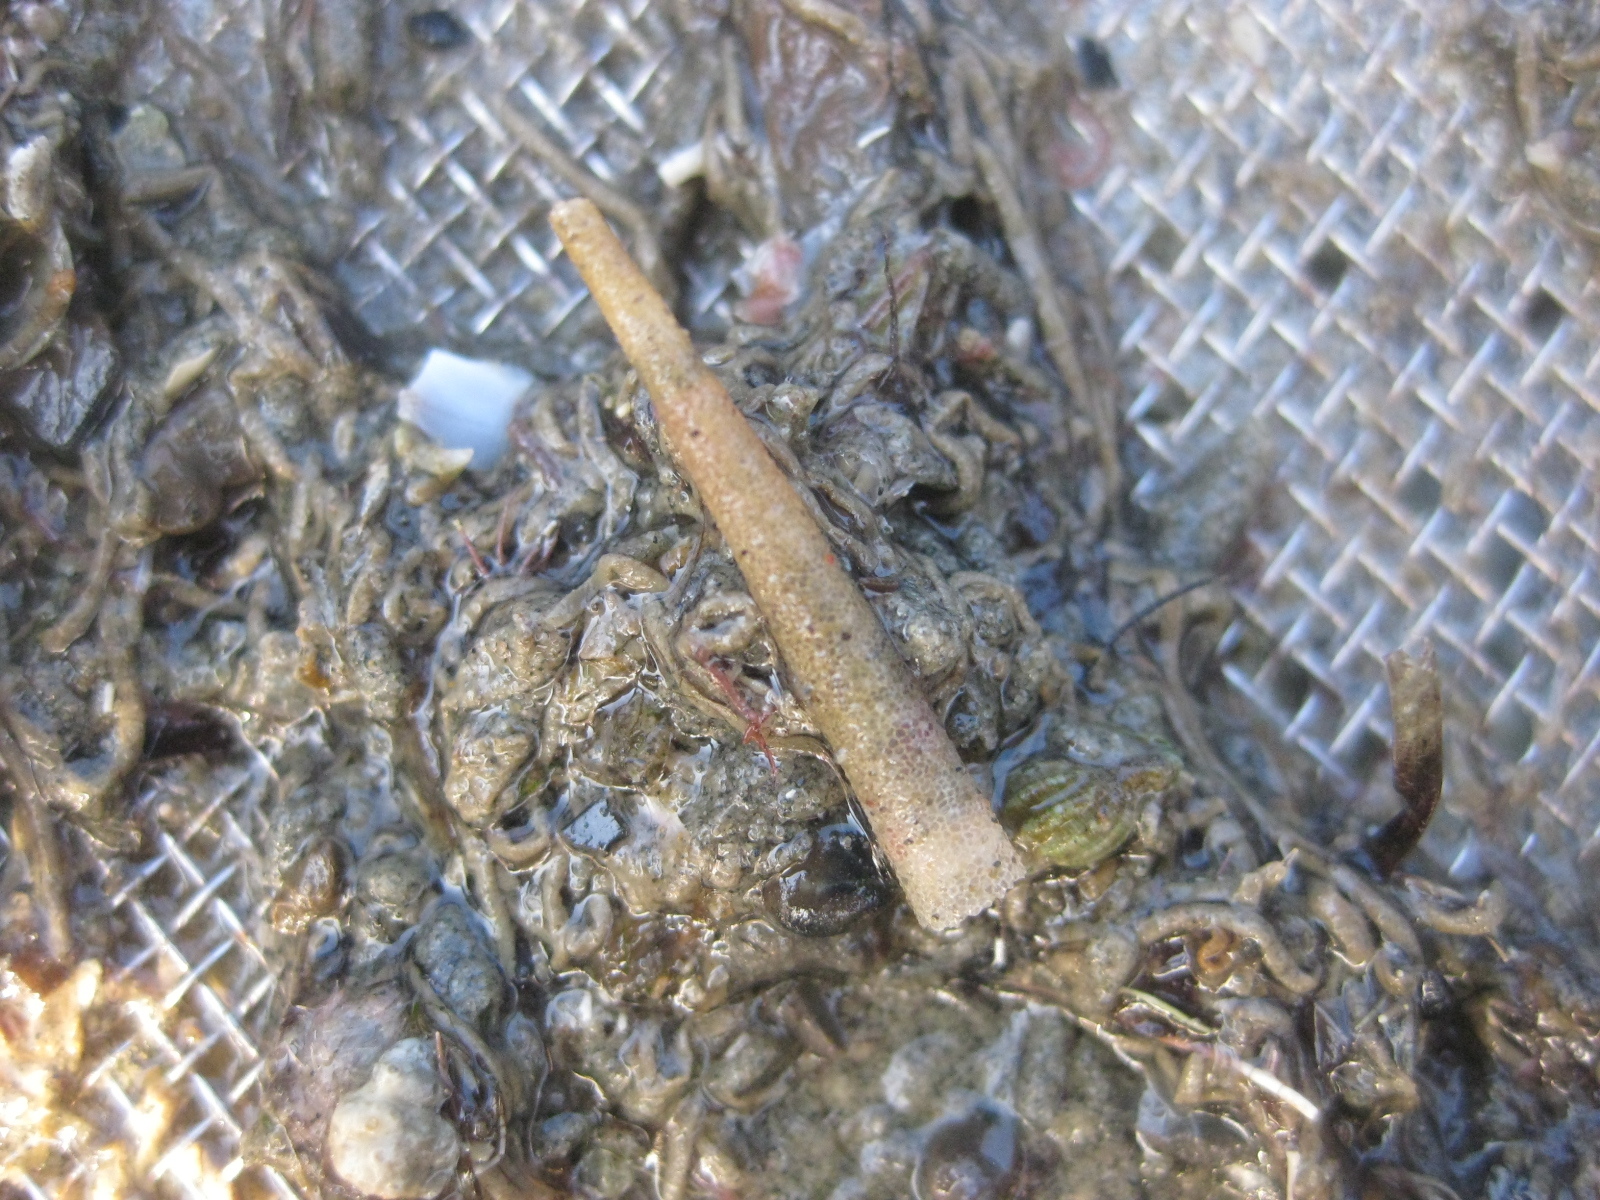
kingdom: Animalia
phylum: Annelida
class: Polychaeta
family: Pectinariidae
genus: Lagis
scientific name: Lagis australis
